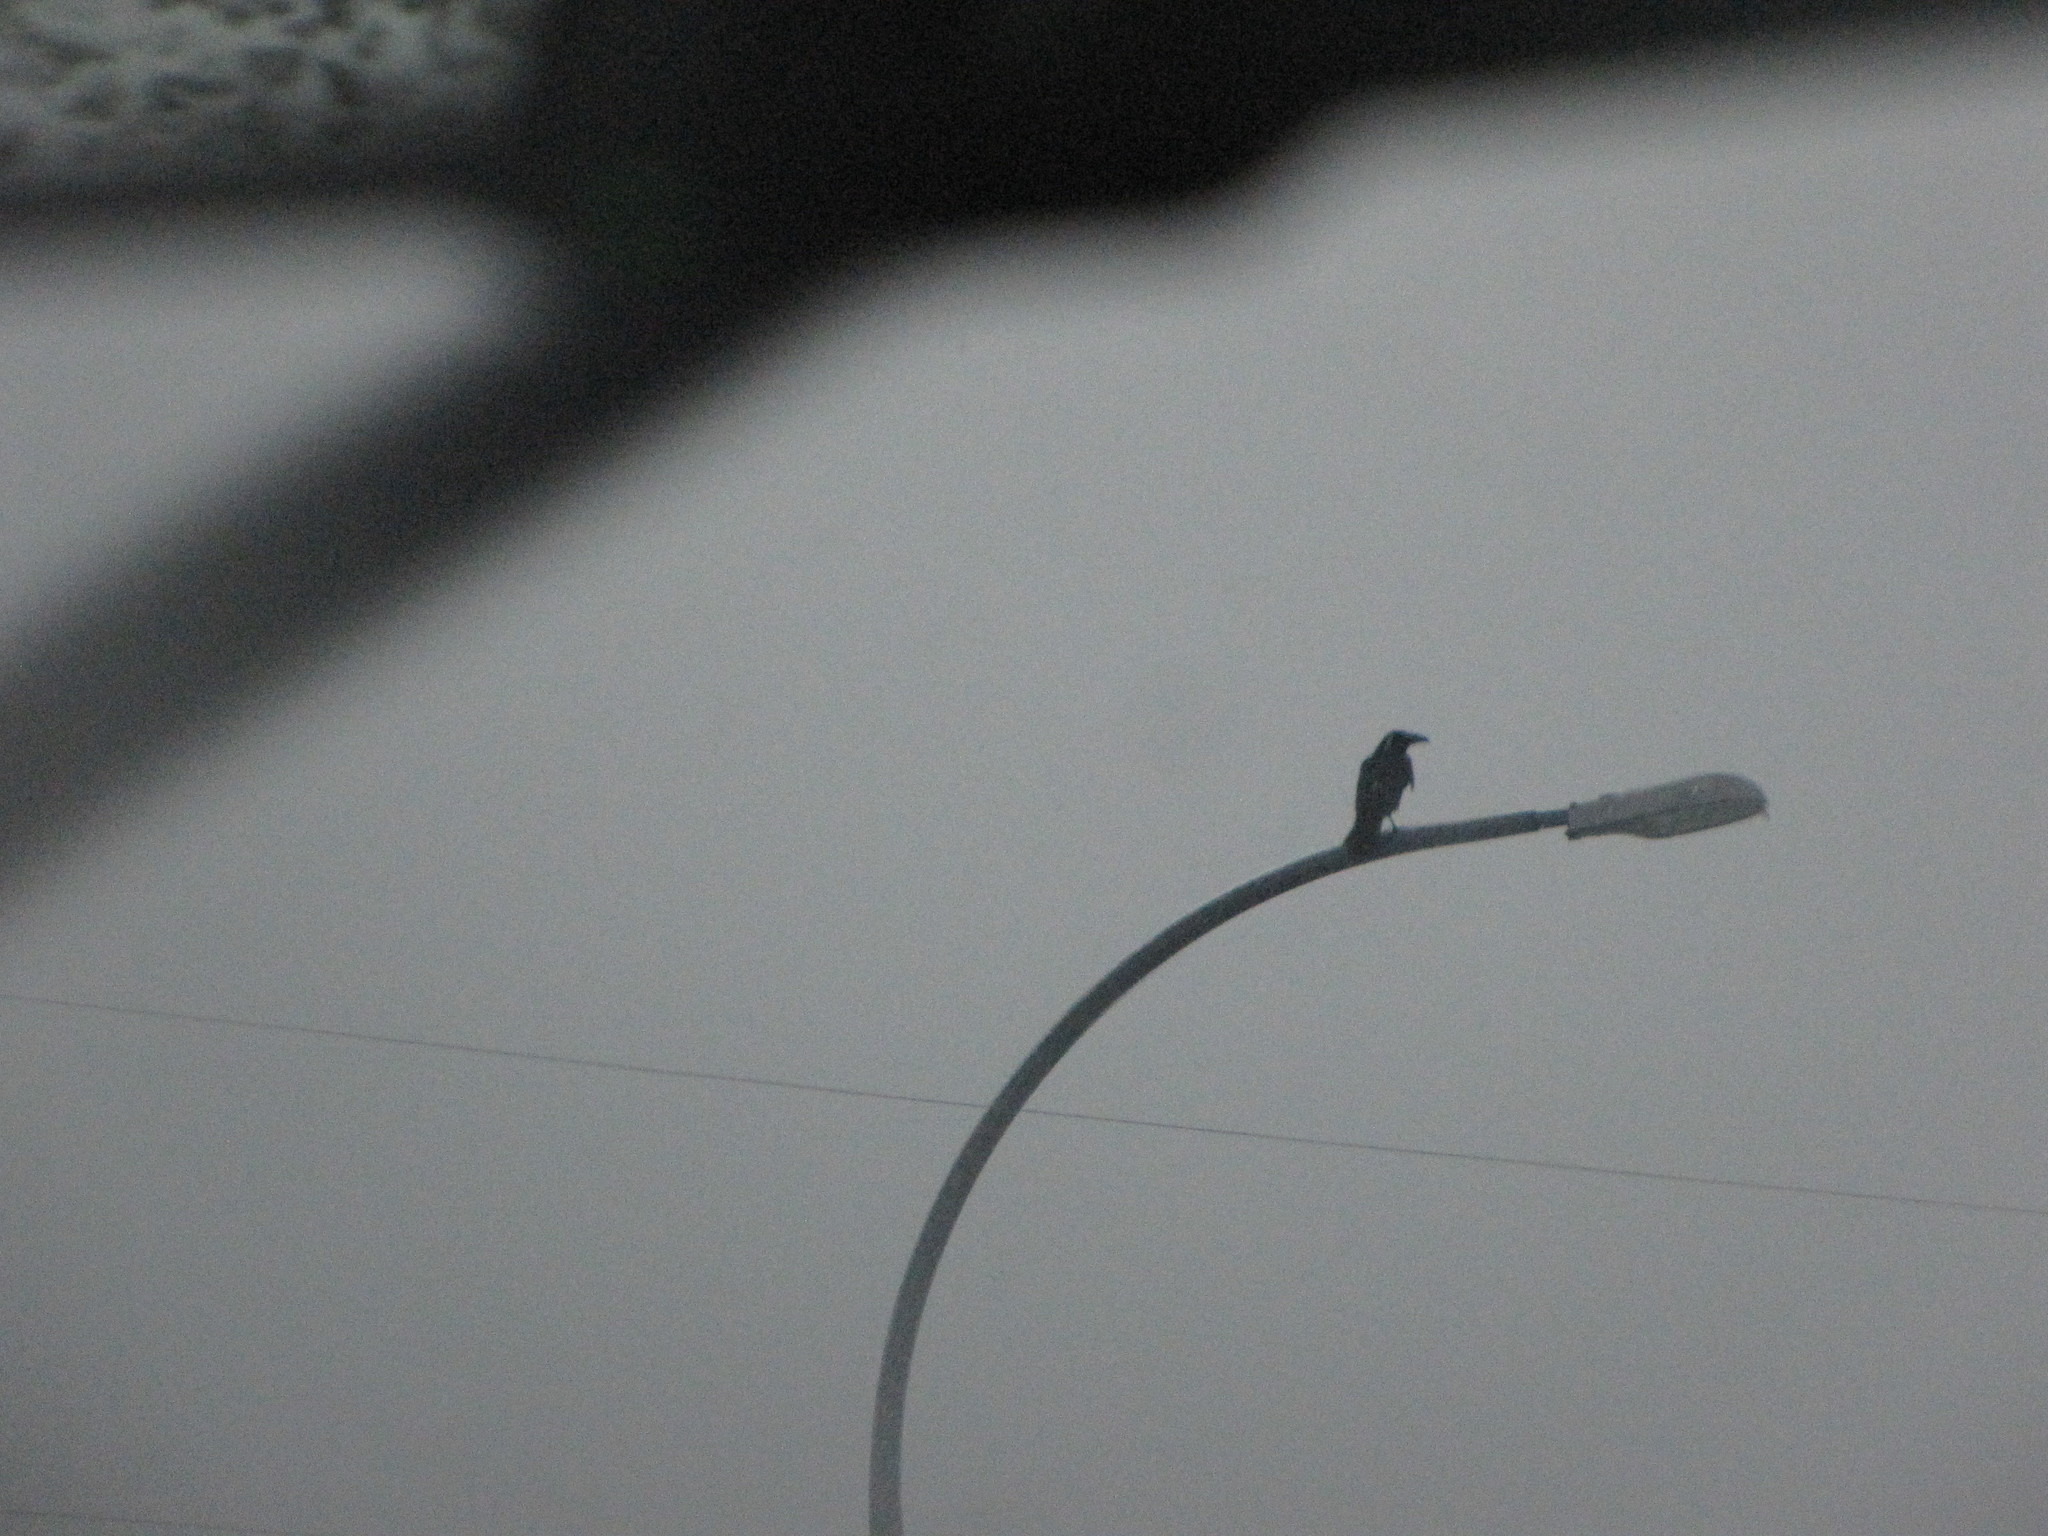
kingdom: Animalia
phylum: Chordata
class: Aves
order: Passeriformes
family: Corvidae
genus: Corvus
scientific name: Corvus corax
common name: Common raven
